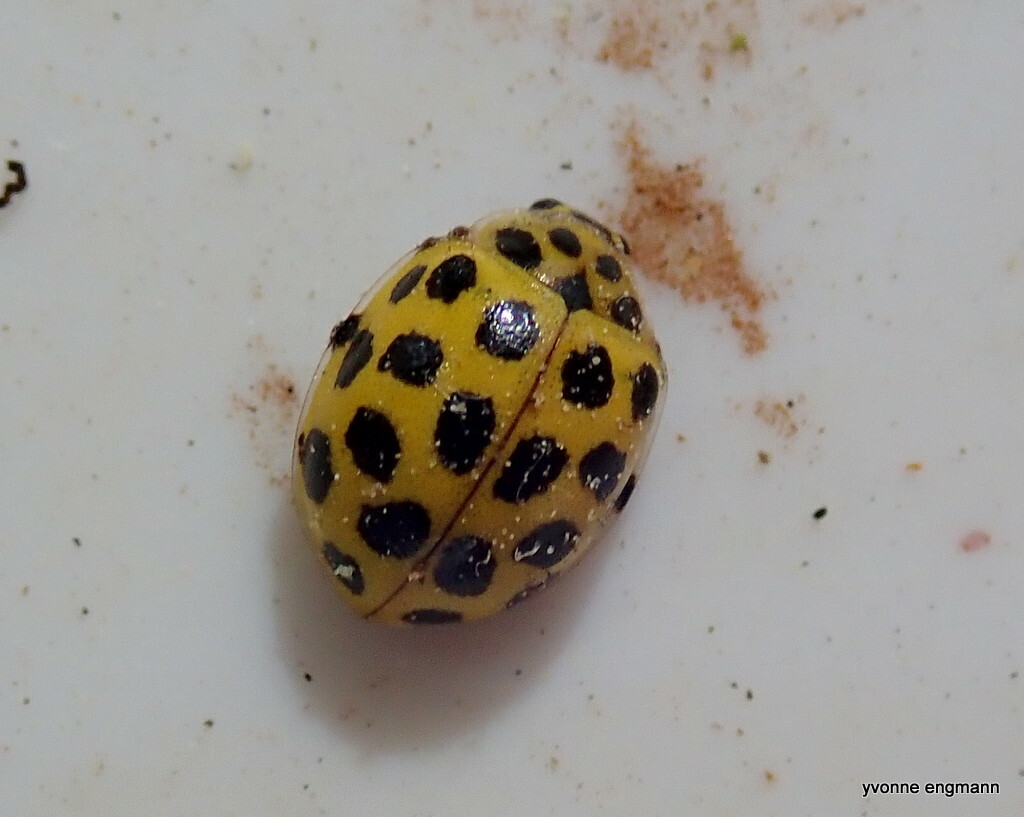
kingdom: Animalia
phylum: Arthropoda
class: Insecta
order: Coleoptera
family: Coccinellidae
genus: Psyllobora
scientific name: Psyllobora vigintiduopunctata
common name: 22-spot ladybird
